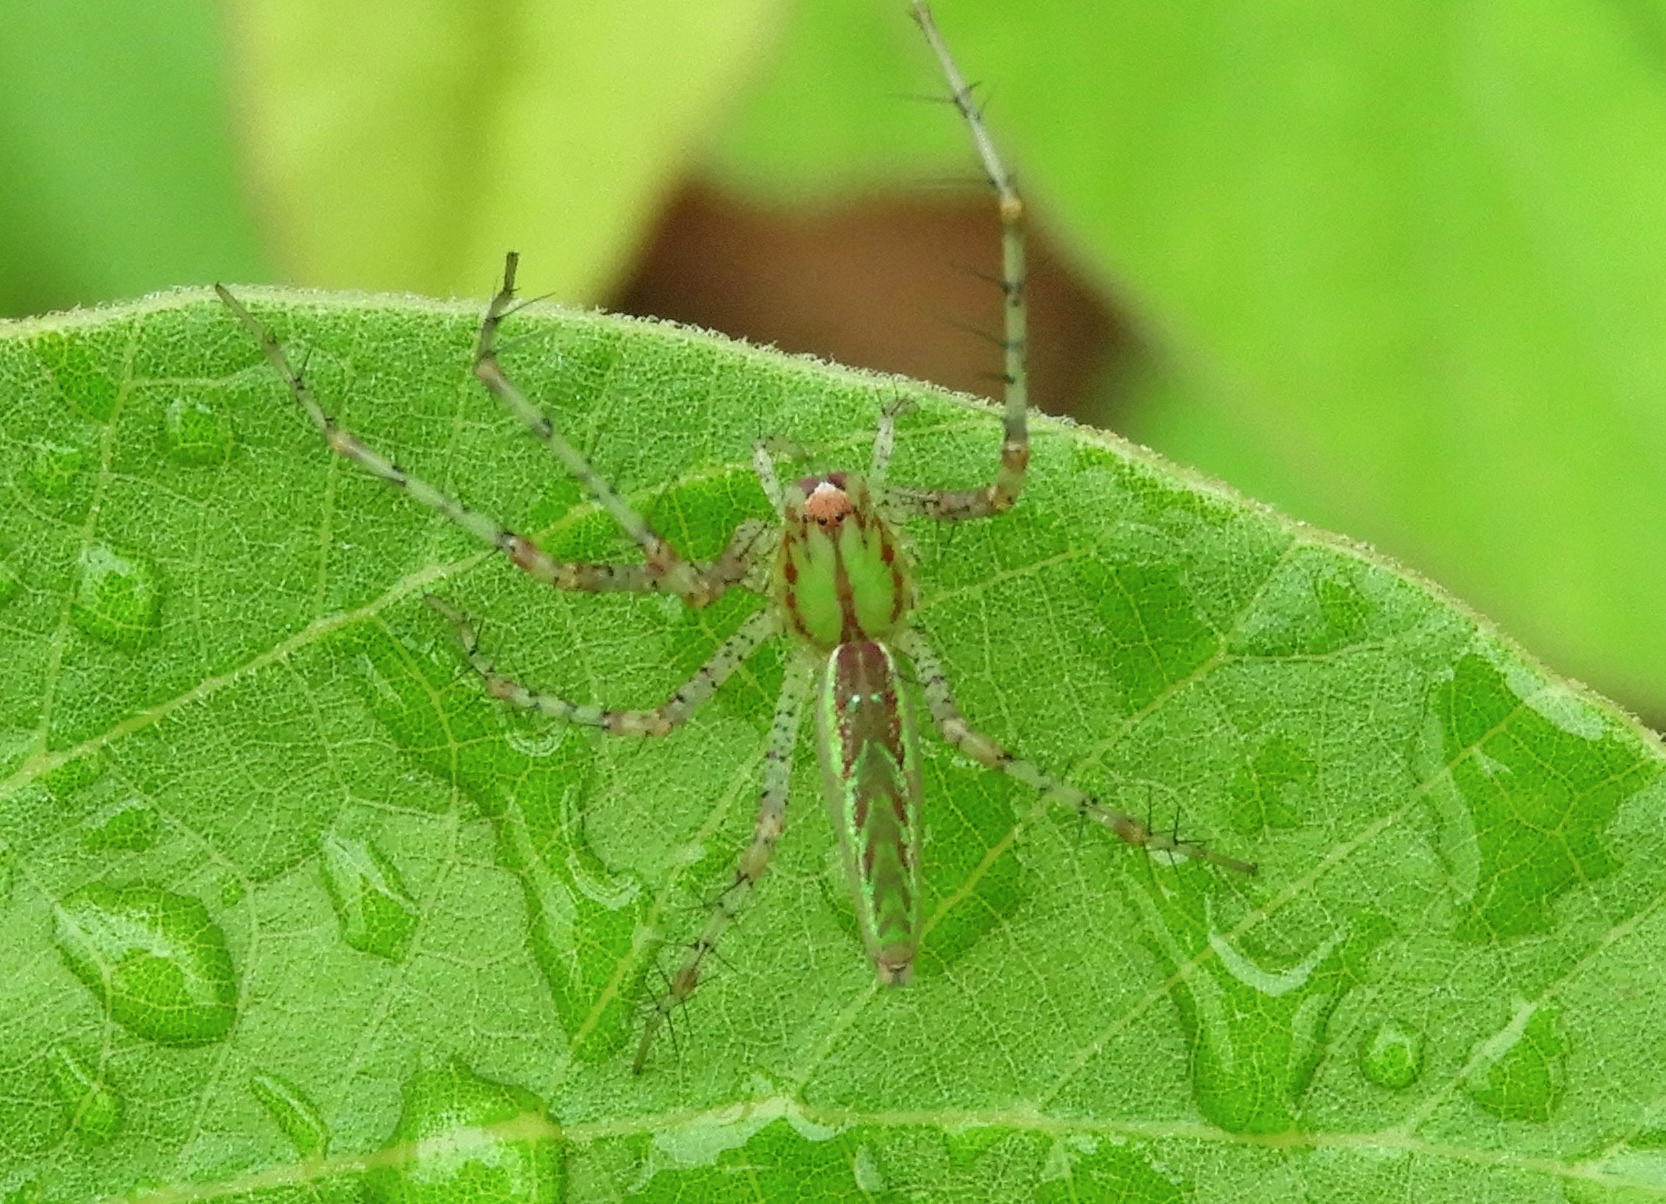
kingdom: Animalia
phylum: Arthropoda
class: Arachnida
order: Araneae
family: Oxyopidae
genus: Peucetia
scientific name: Peucetia
